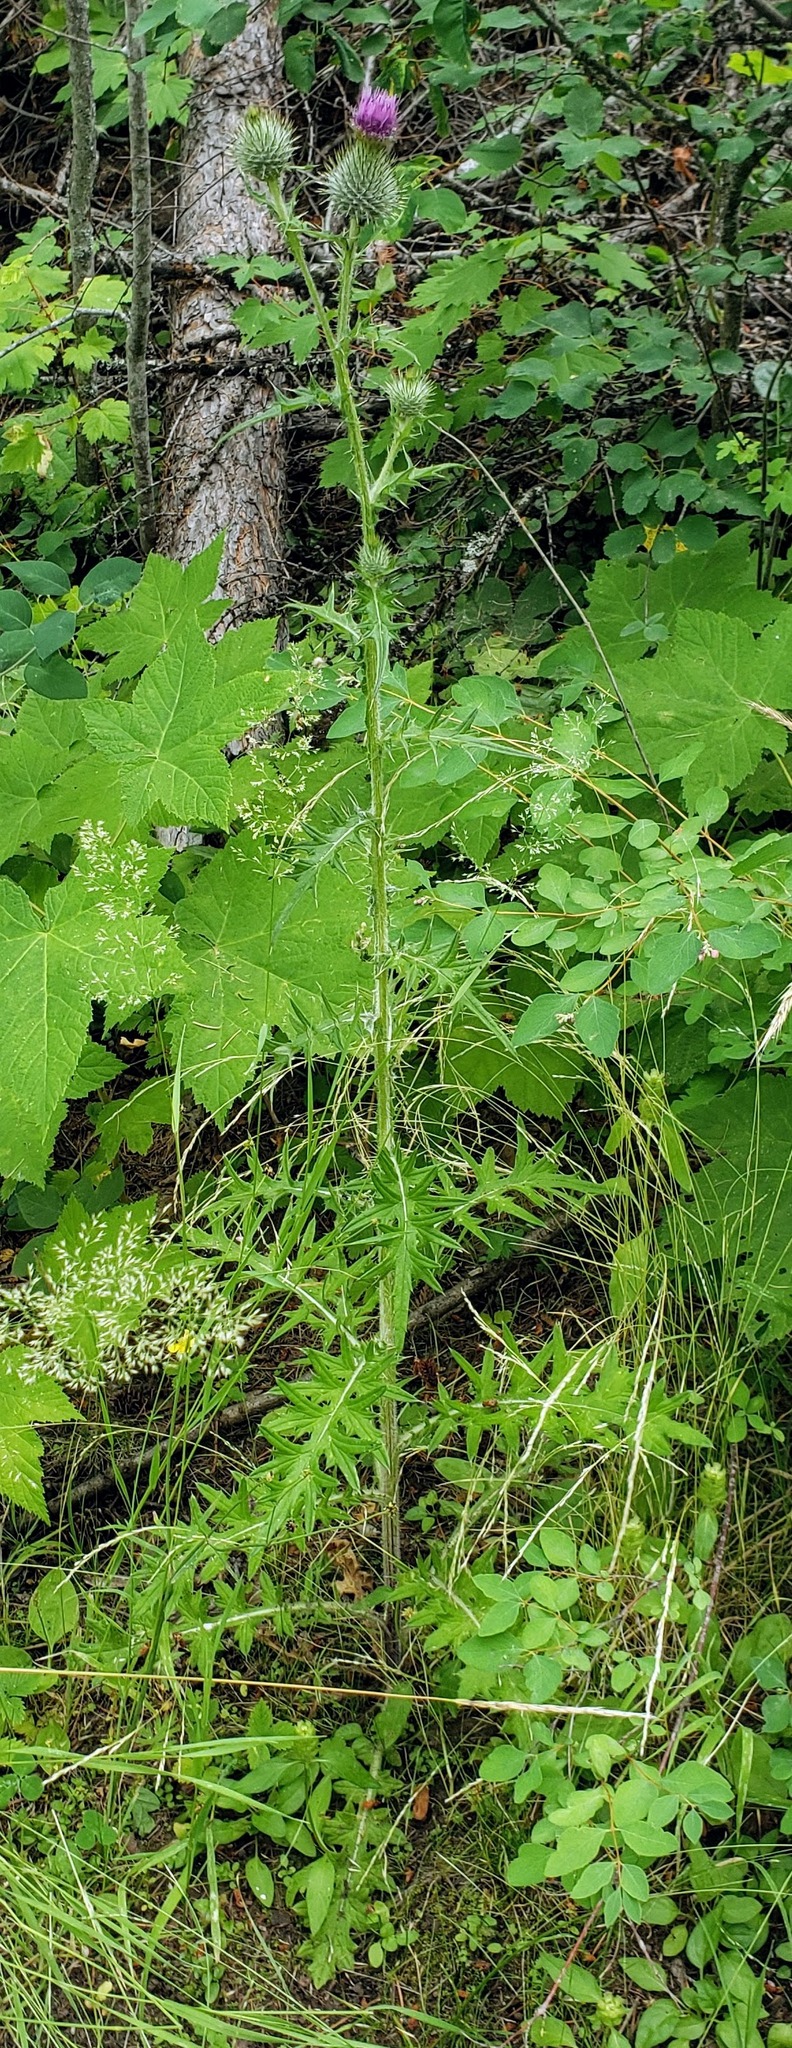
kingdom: Plantae
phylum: Tracheophyta
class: Magnoliopsida
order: Asterales
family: Asteraceae
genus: Cirsium
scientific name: Cirsium vulgare
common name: Bull thistle
